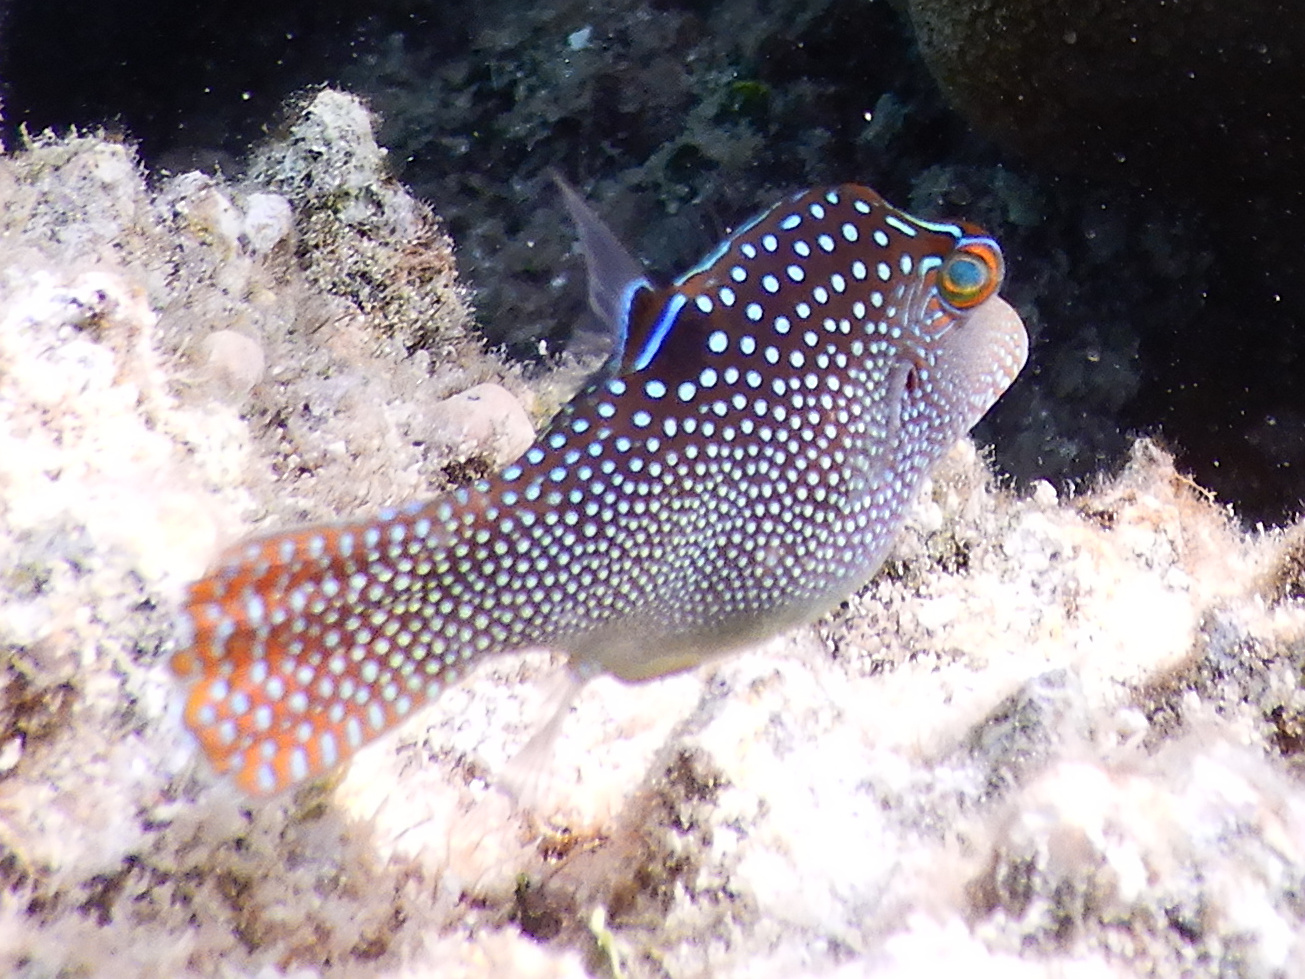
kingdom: Animalia
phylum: Chordata
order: Tetraodontiformes
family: Tetraodontidae
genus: Canthigaster
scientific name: Canthigaster solandri
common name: False-eye toby
